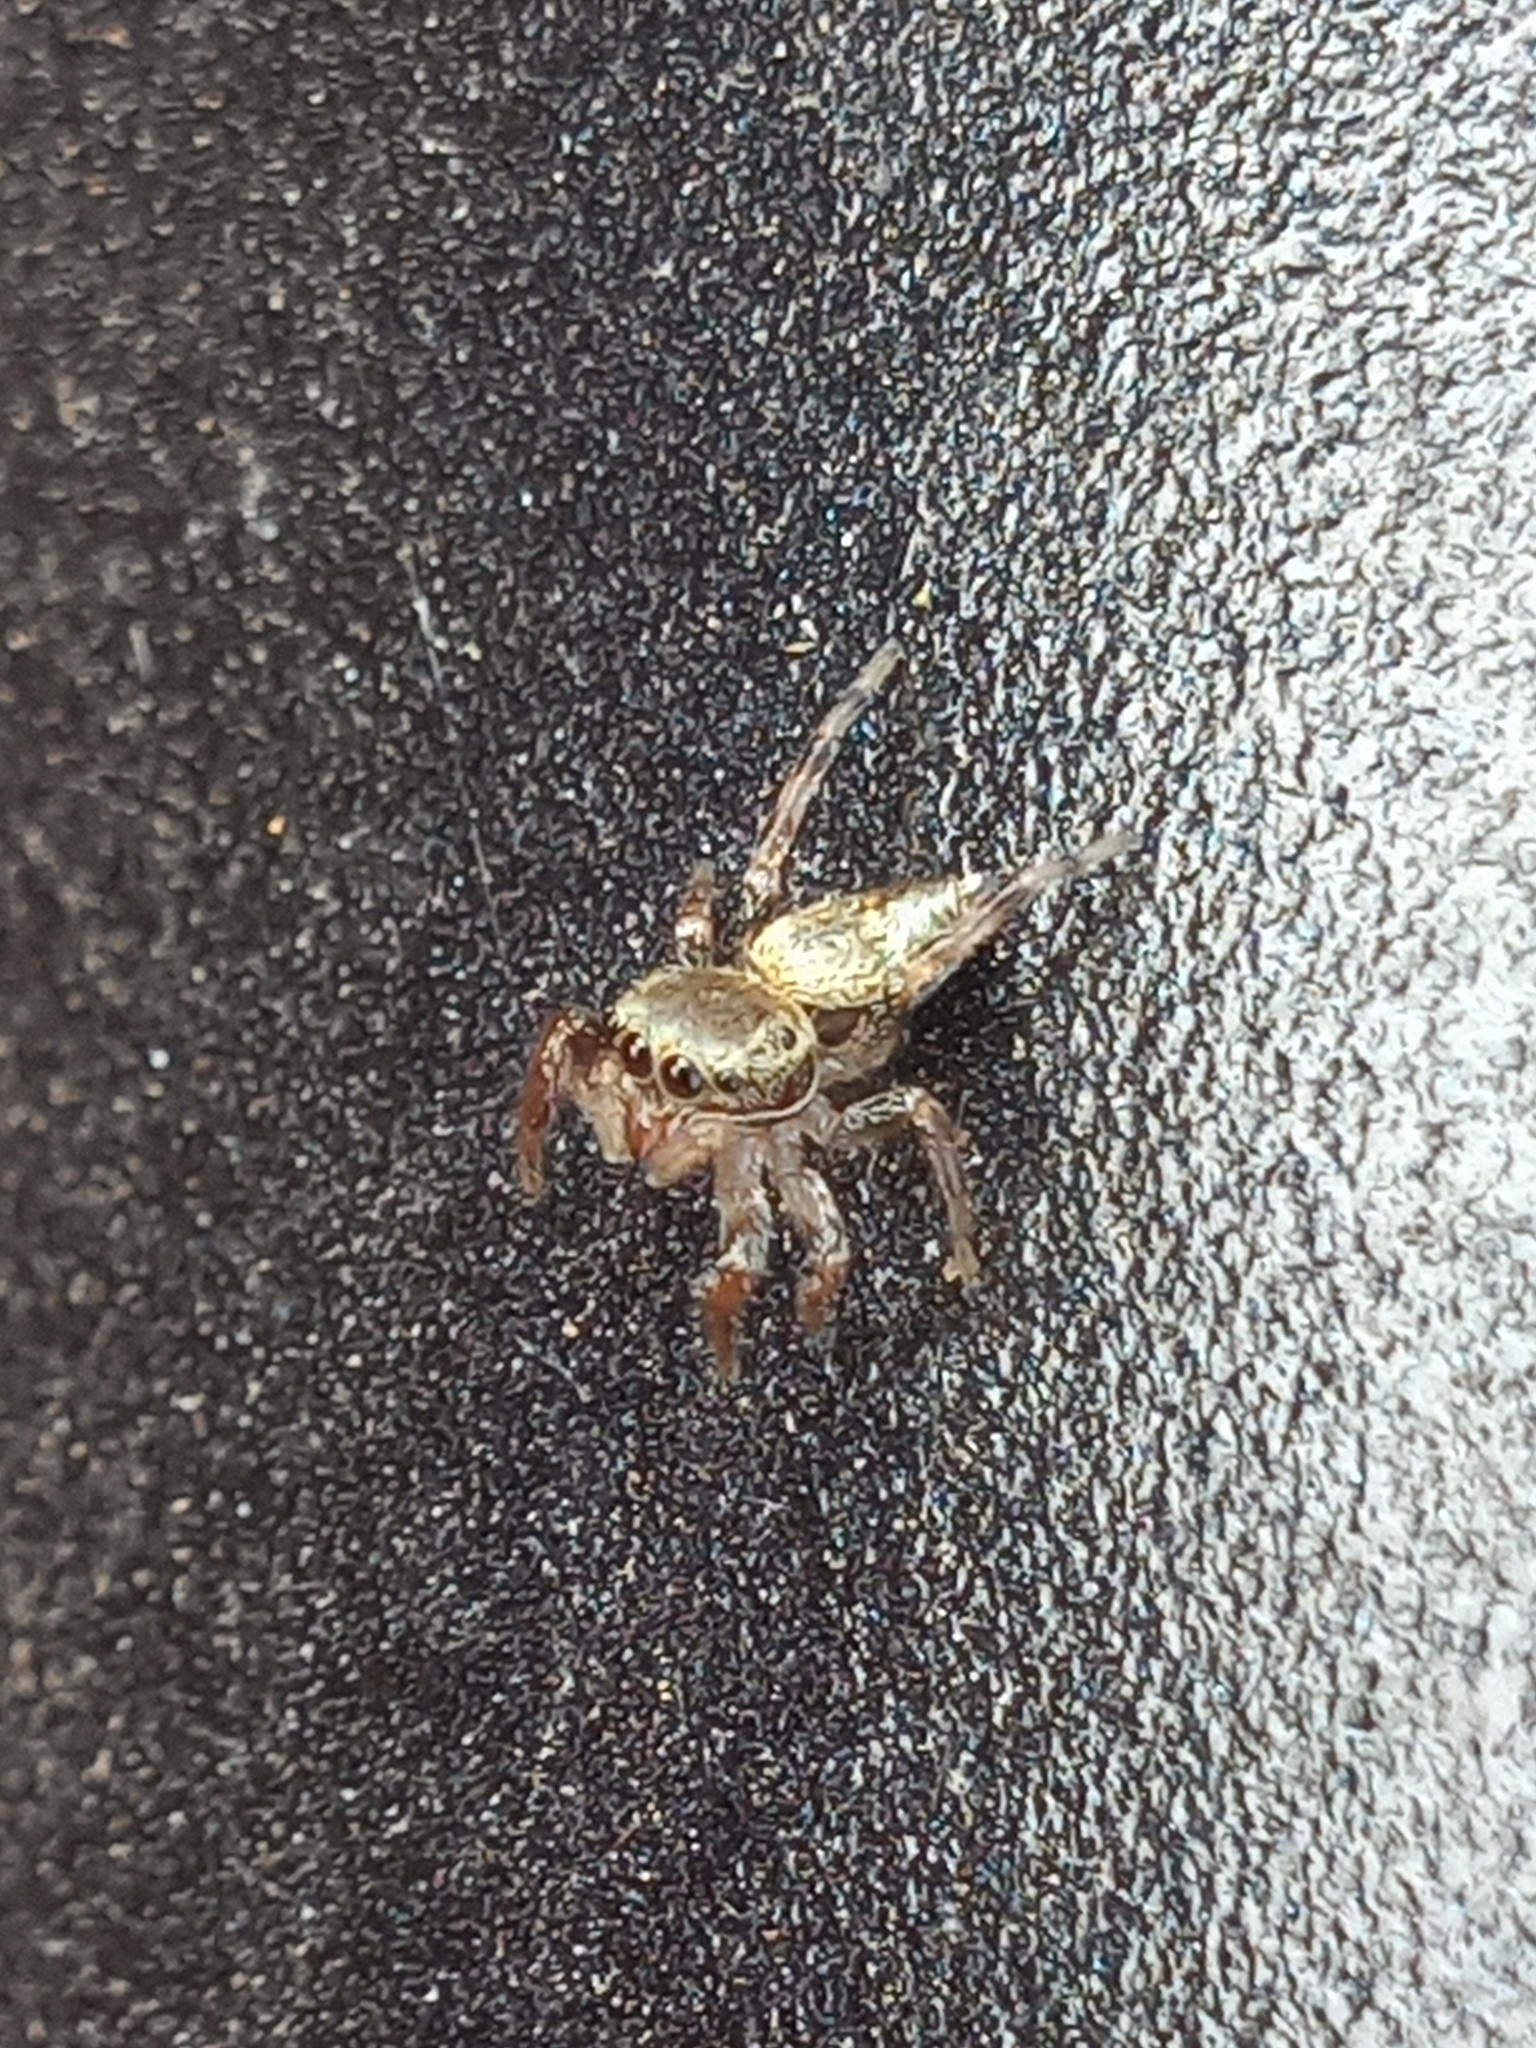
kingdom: Animalia
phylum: Arthropoda
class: Arachnida
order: Araneae
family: Salticidae
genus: Messua
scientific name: Messua limbata
